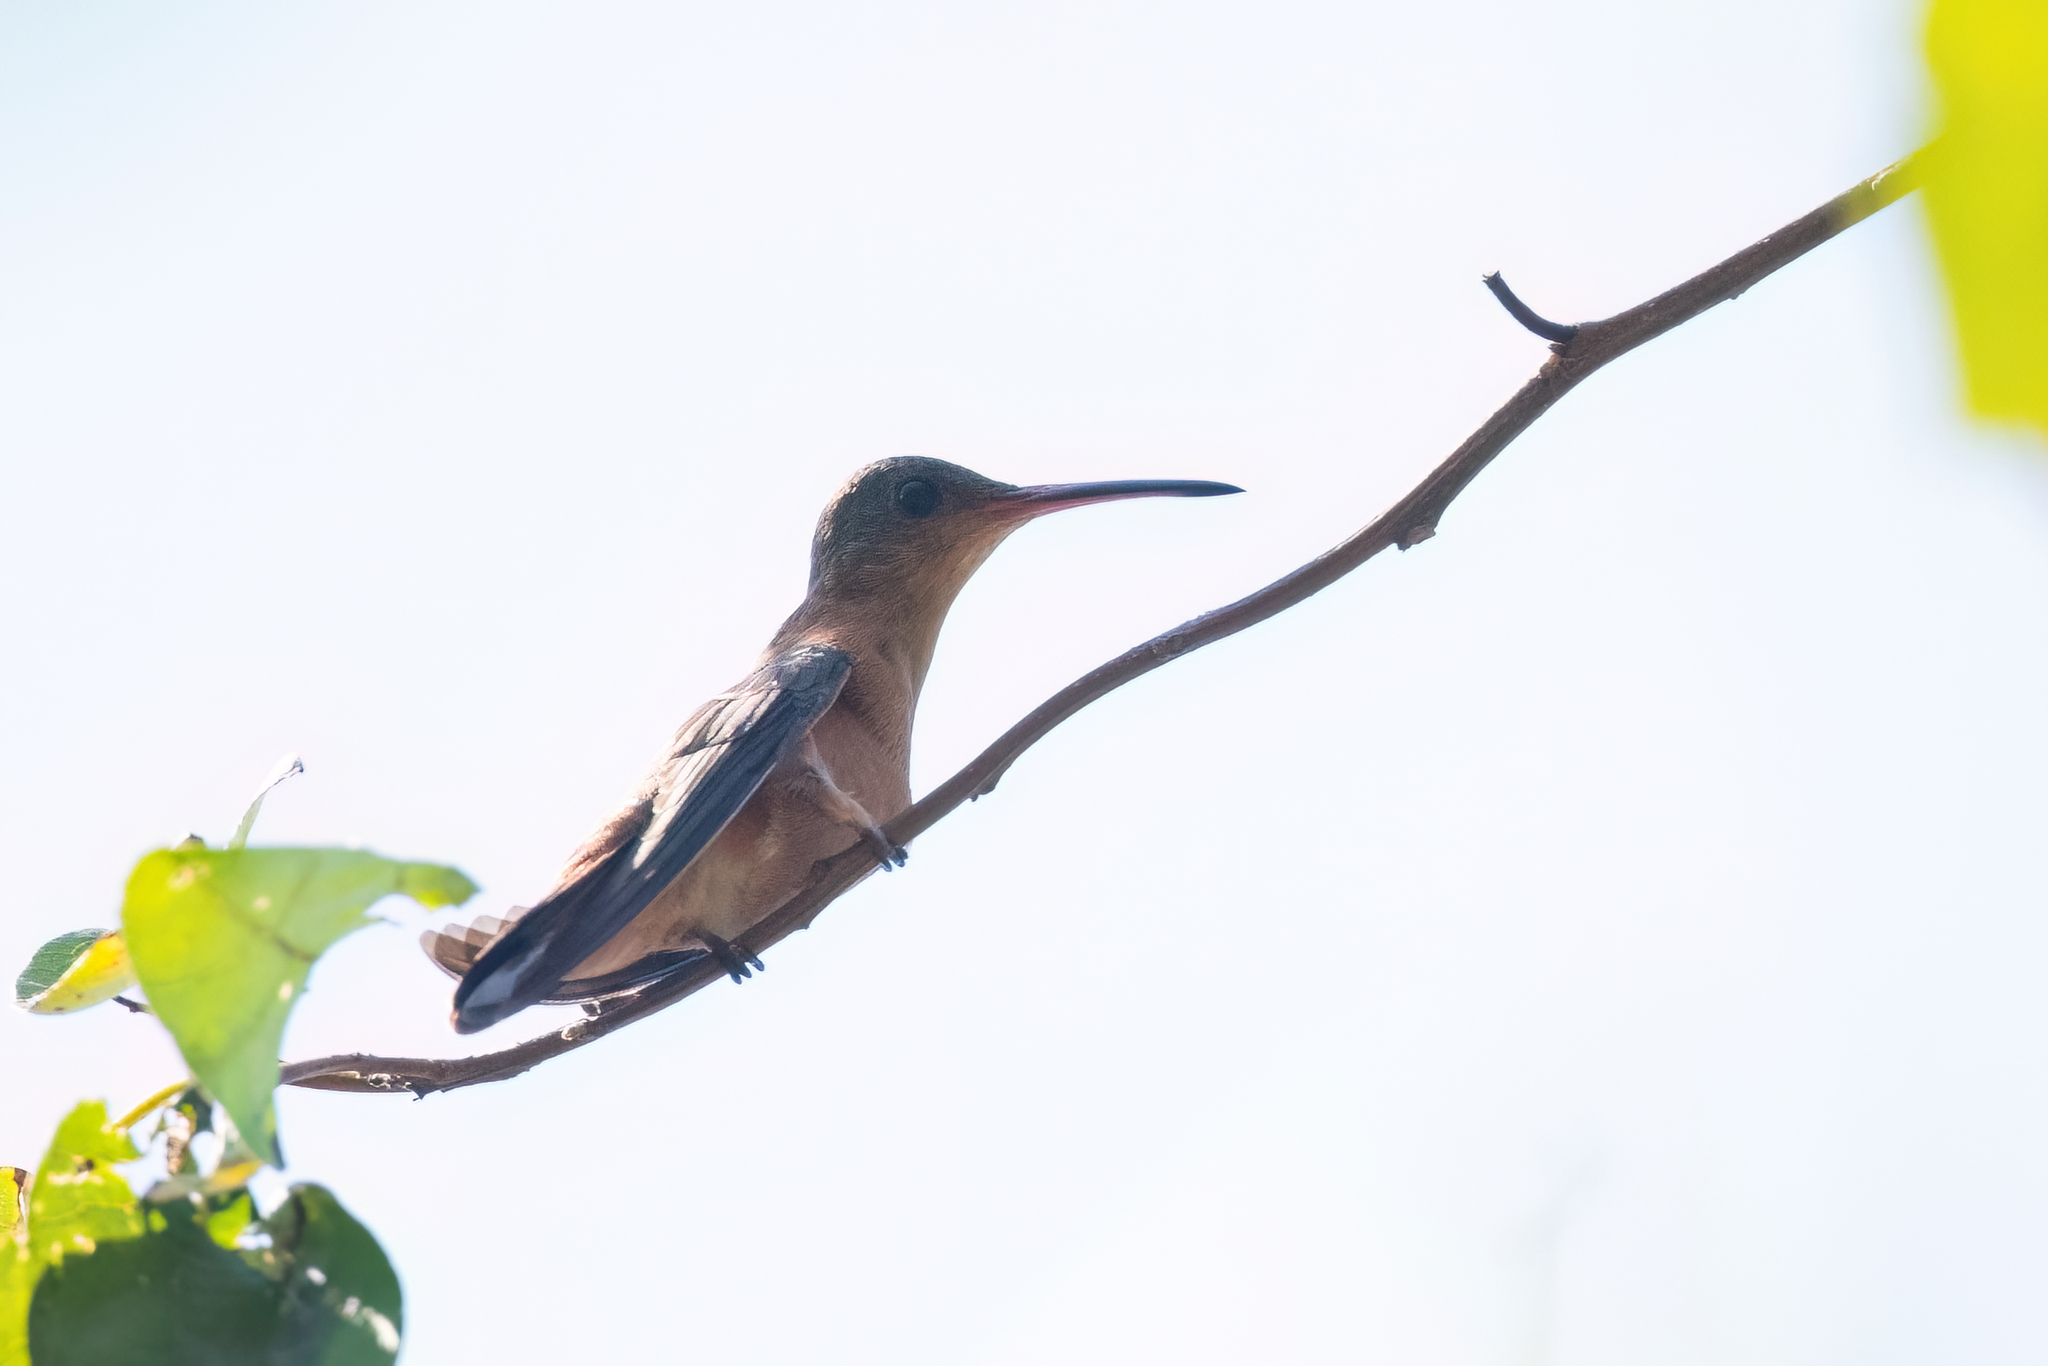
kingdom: Animalia
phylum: Chordata
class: Aves
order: Apodiformes
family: Trochilidae
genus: Amazilia
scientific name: Amazilia rutila
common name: Cinnamon hummingbird
